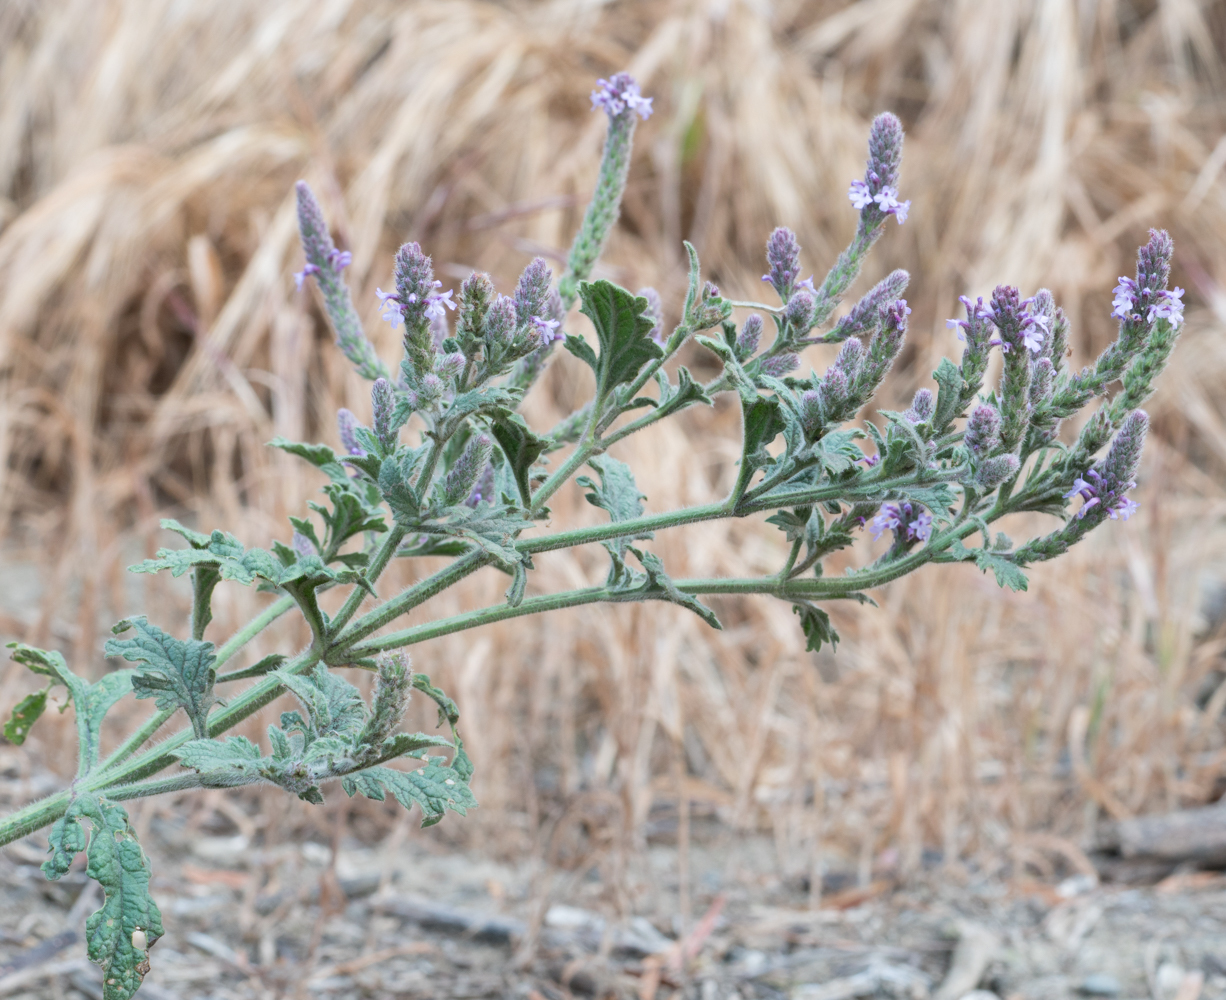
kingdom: Plantae
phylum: Tracheophyta
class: Magnoliopsida
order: Lamiales
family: Verbenaceae
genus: Verbena
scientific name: Verbena lasiostachys
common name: Vervain
